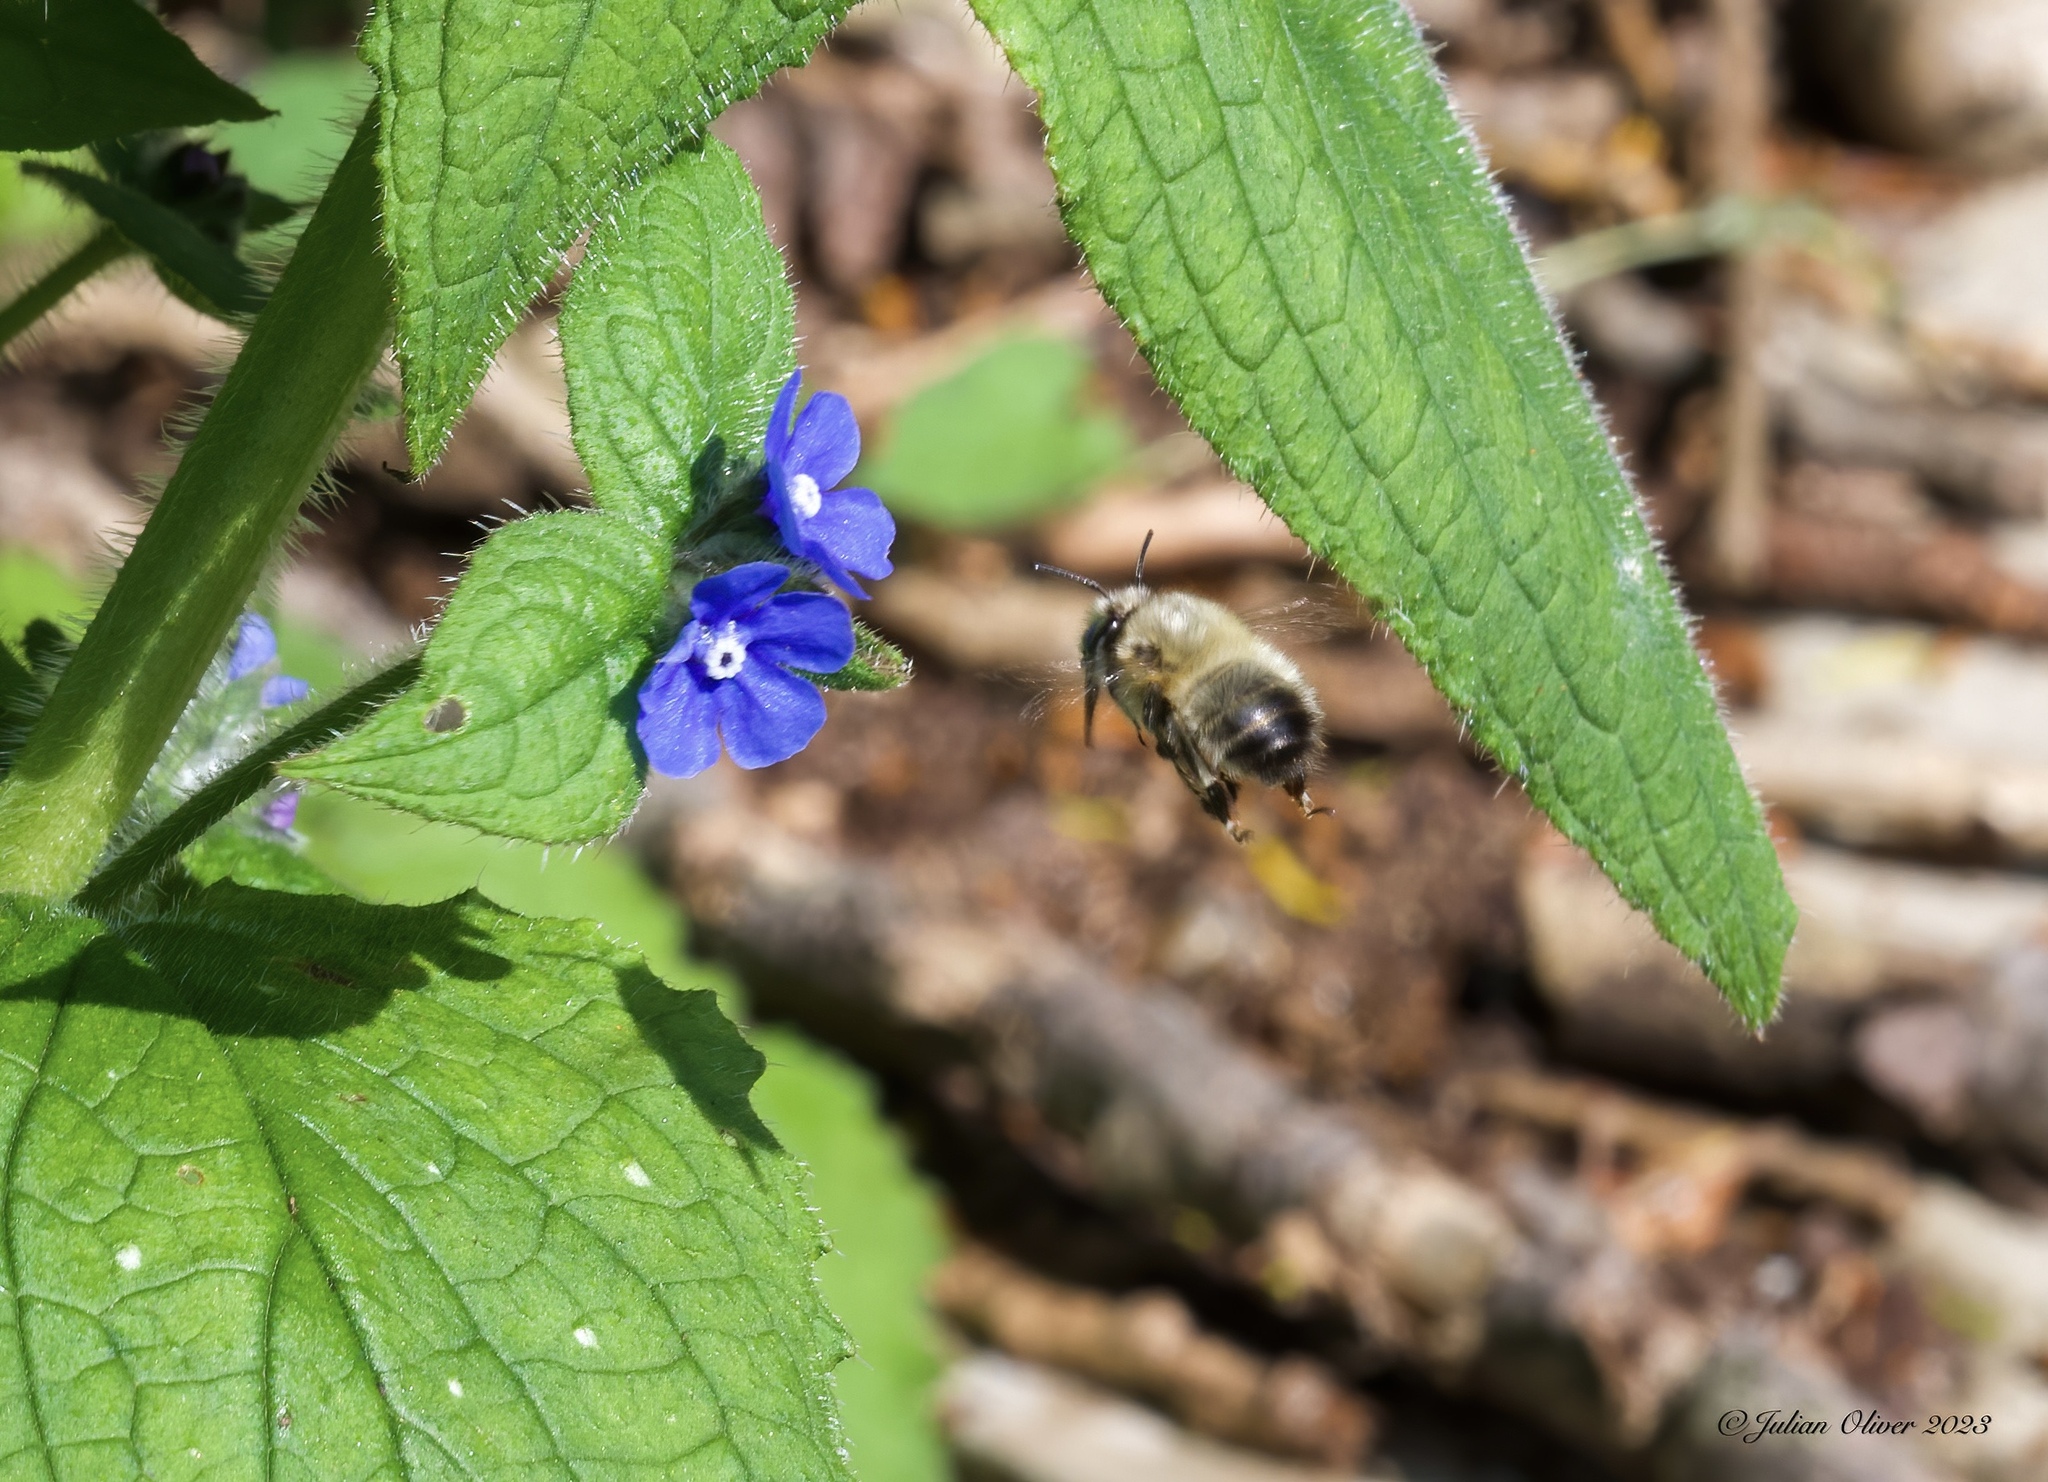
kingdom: Animalia
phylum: Arthropoda
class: Insecta
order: Hymenoptera
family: Apidae
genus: Anthophora
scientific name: Anthophora plumipes
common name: Hairy-footed flower bee
